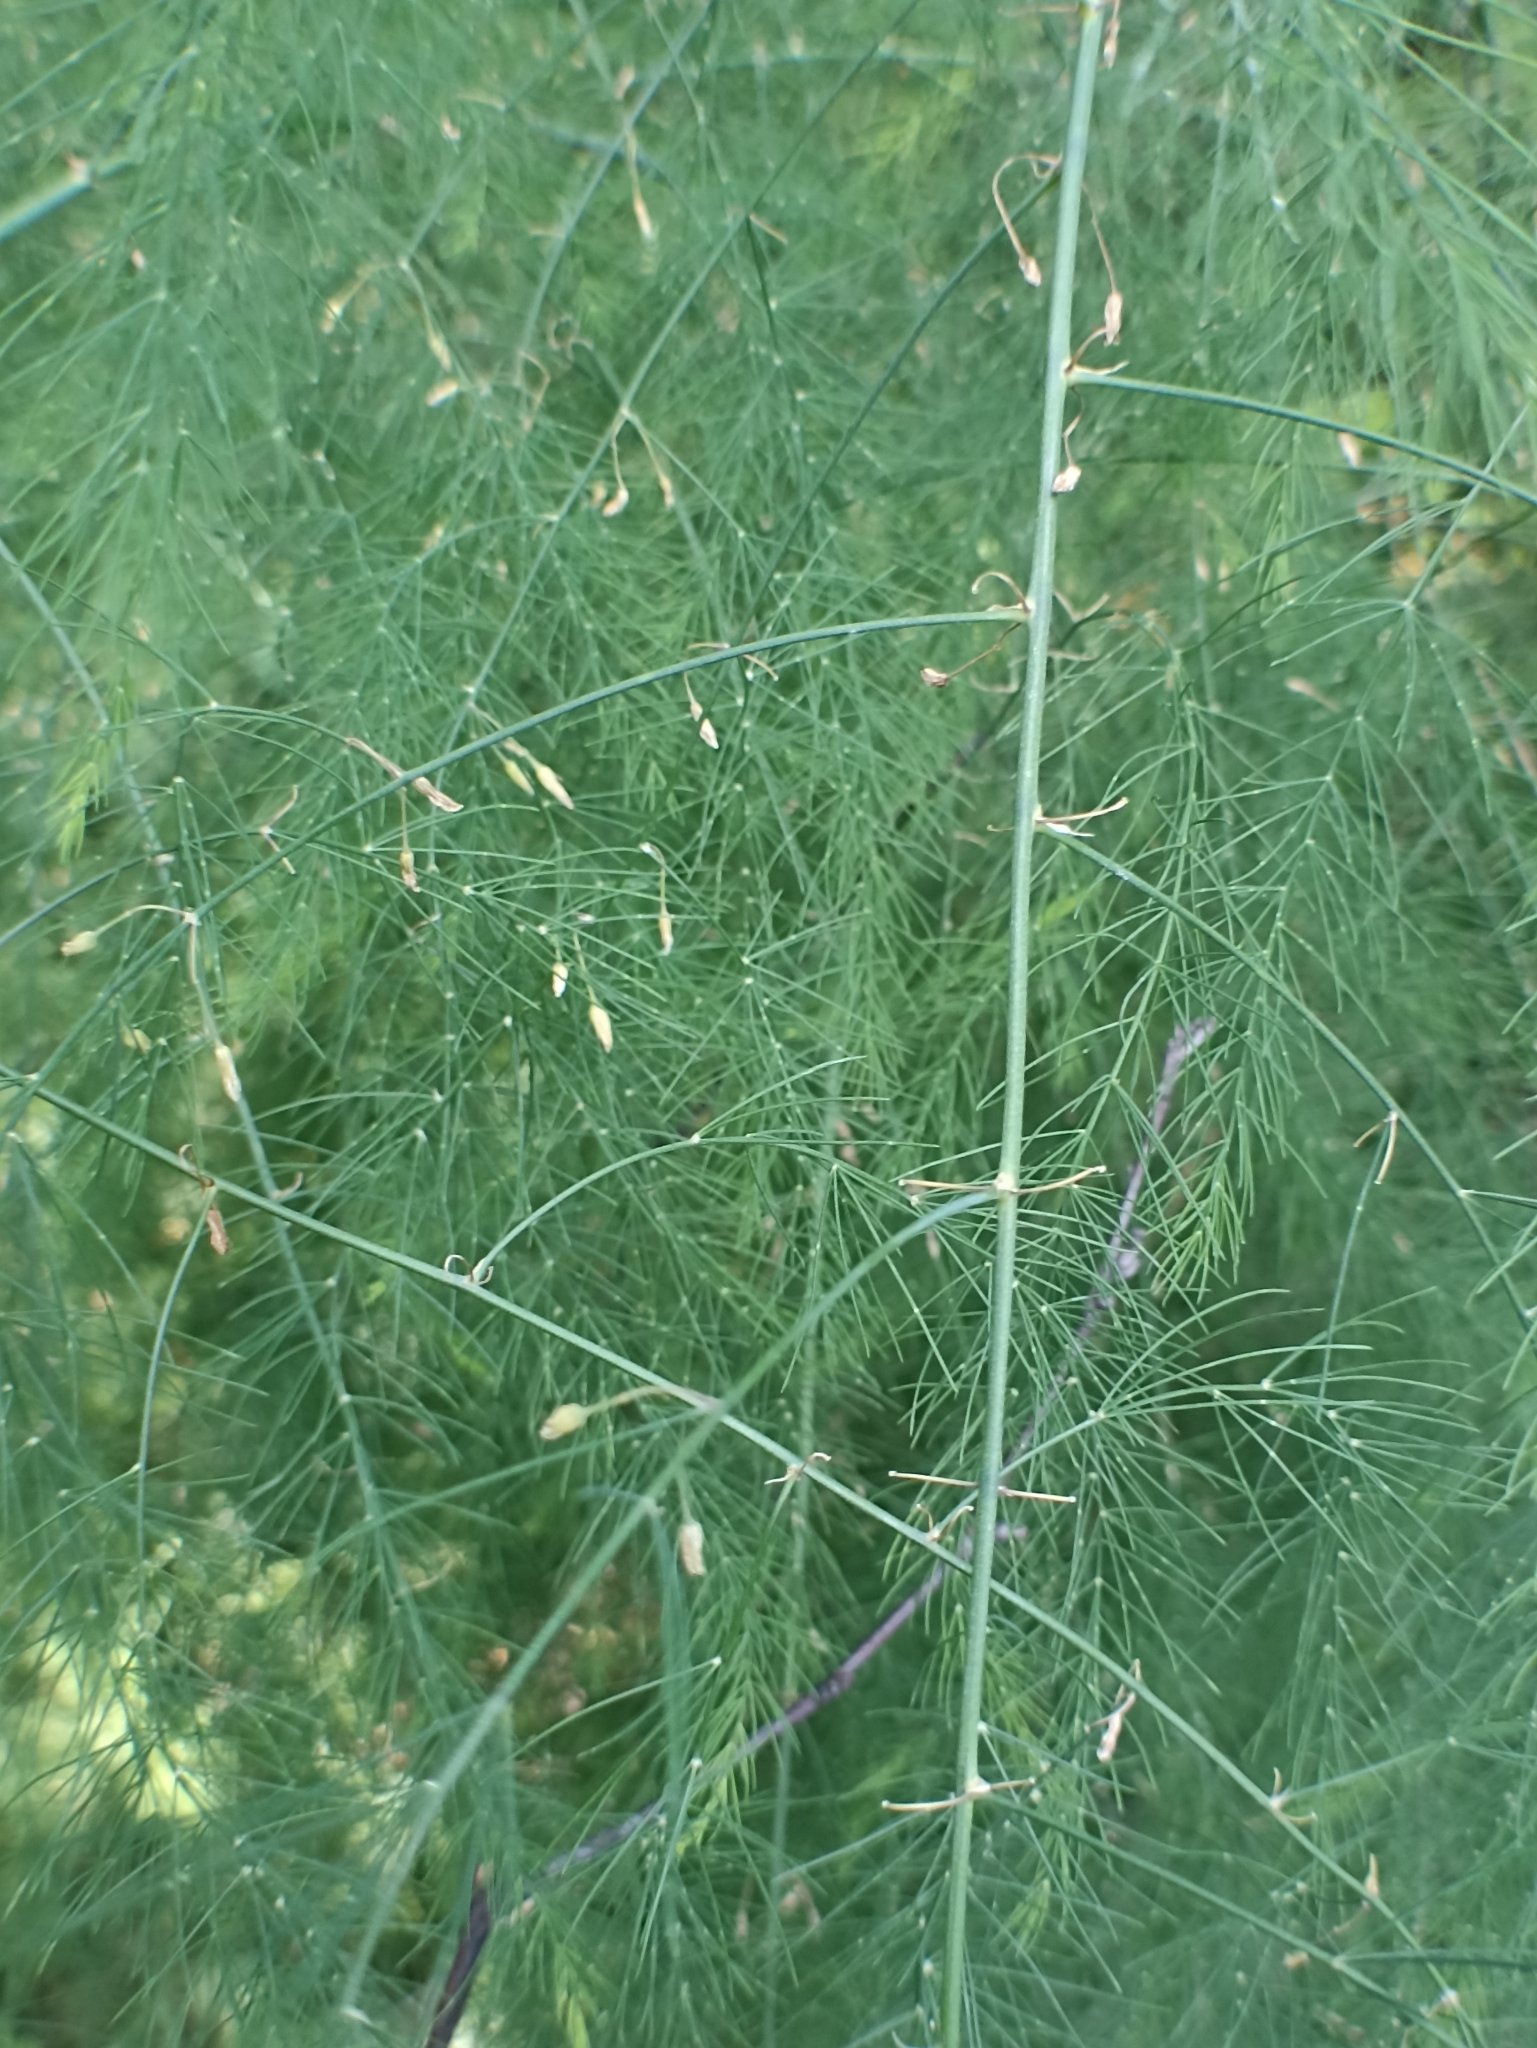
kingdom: Plantae
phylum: Tracheophyta
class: Liliopsida
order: Asparagales
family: Asparagaceae
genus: Asparagus
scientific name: Asparagus officinalis
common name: Garden asparagus
